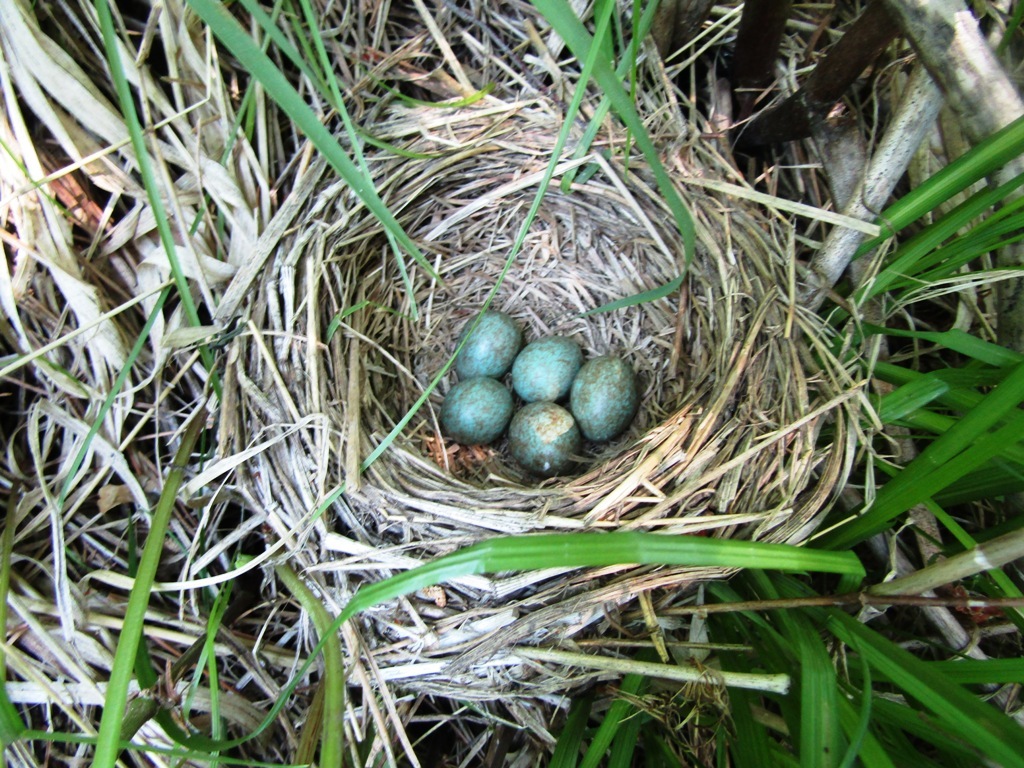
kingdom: Animalia
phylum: Chordata
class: Aves
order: Passeriformes
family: Turdidae
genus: Turdus
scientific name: Turdus iliacus
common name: Redwing
